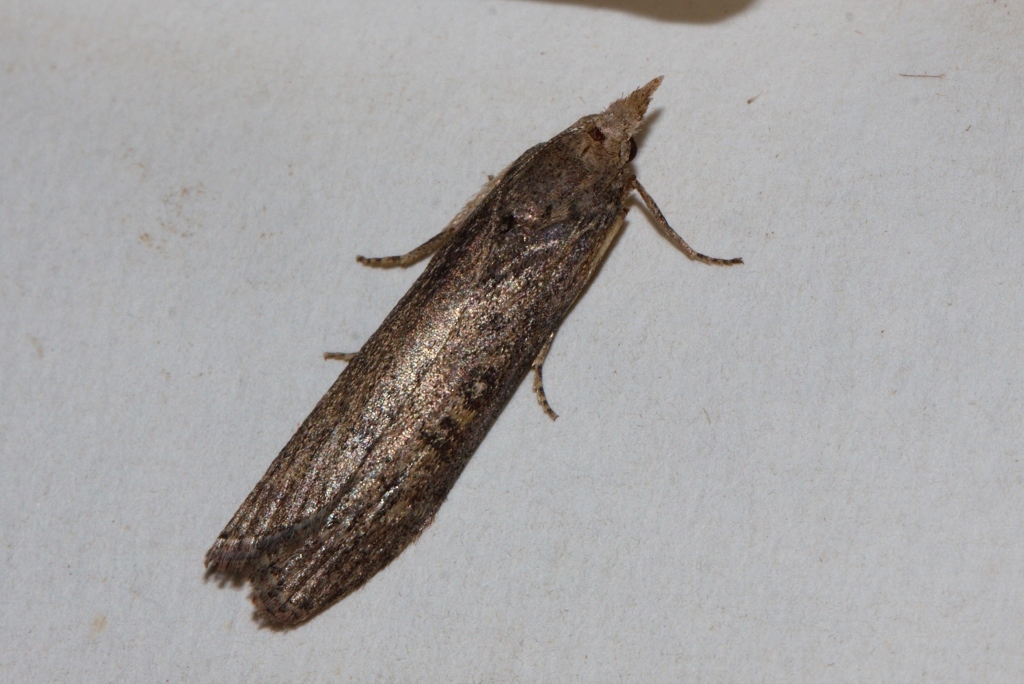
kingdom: Animalia
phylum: Arthropoda
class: Insecta
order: Lepidoptera
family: Pyralidae
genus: Lamoria
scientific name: Lamoria imbella
